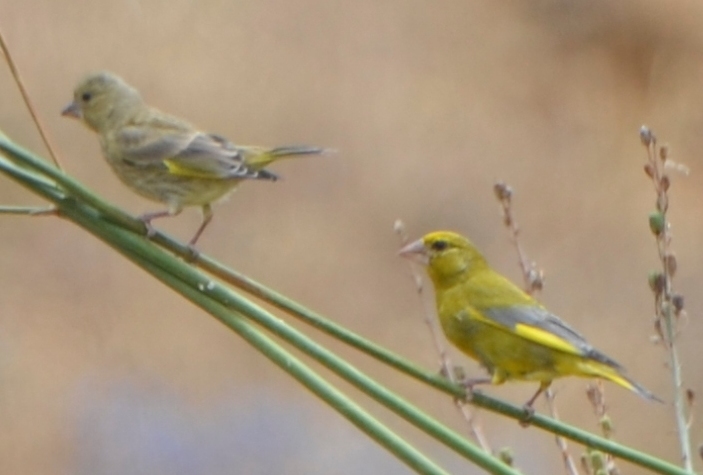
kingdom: Plantae
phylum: Tracheophyta
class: Liliopsida
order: Poales
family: Poaceae
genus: Chloris
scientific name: Chloris chloris
